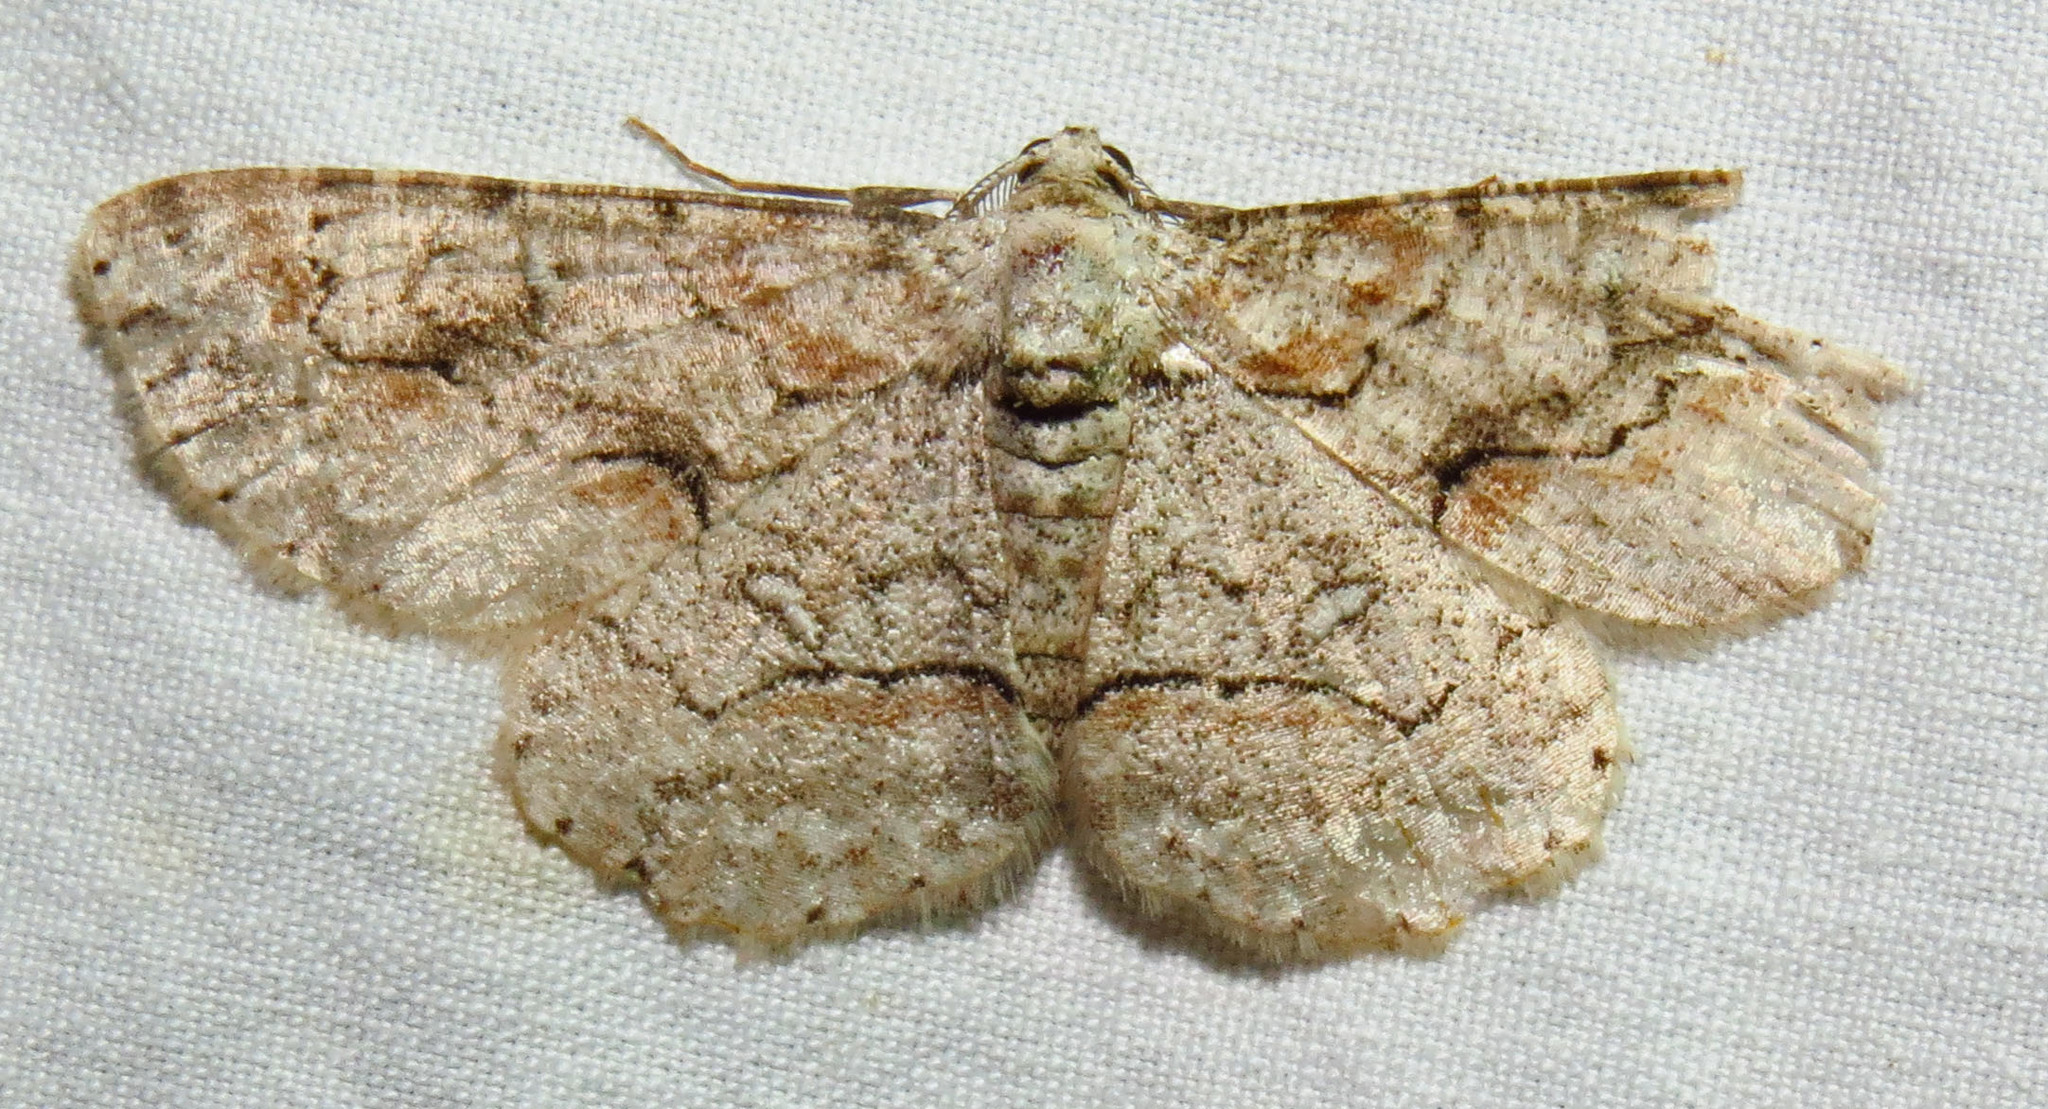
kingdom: Animalia
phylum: Arthropoda
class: Insecta
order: Lepidoptera
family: Geometridae
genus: Iridopsis
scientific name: Iridopsis defectaria
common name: Brown-shaded gray
